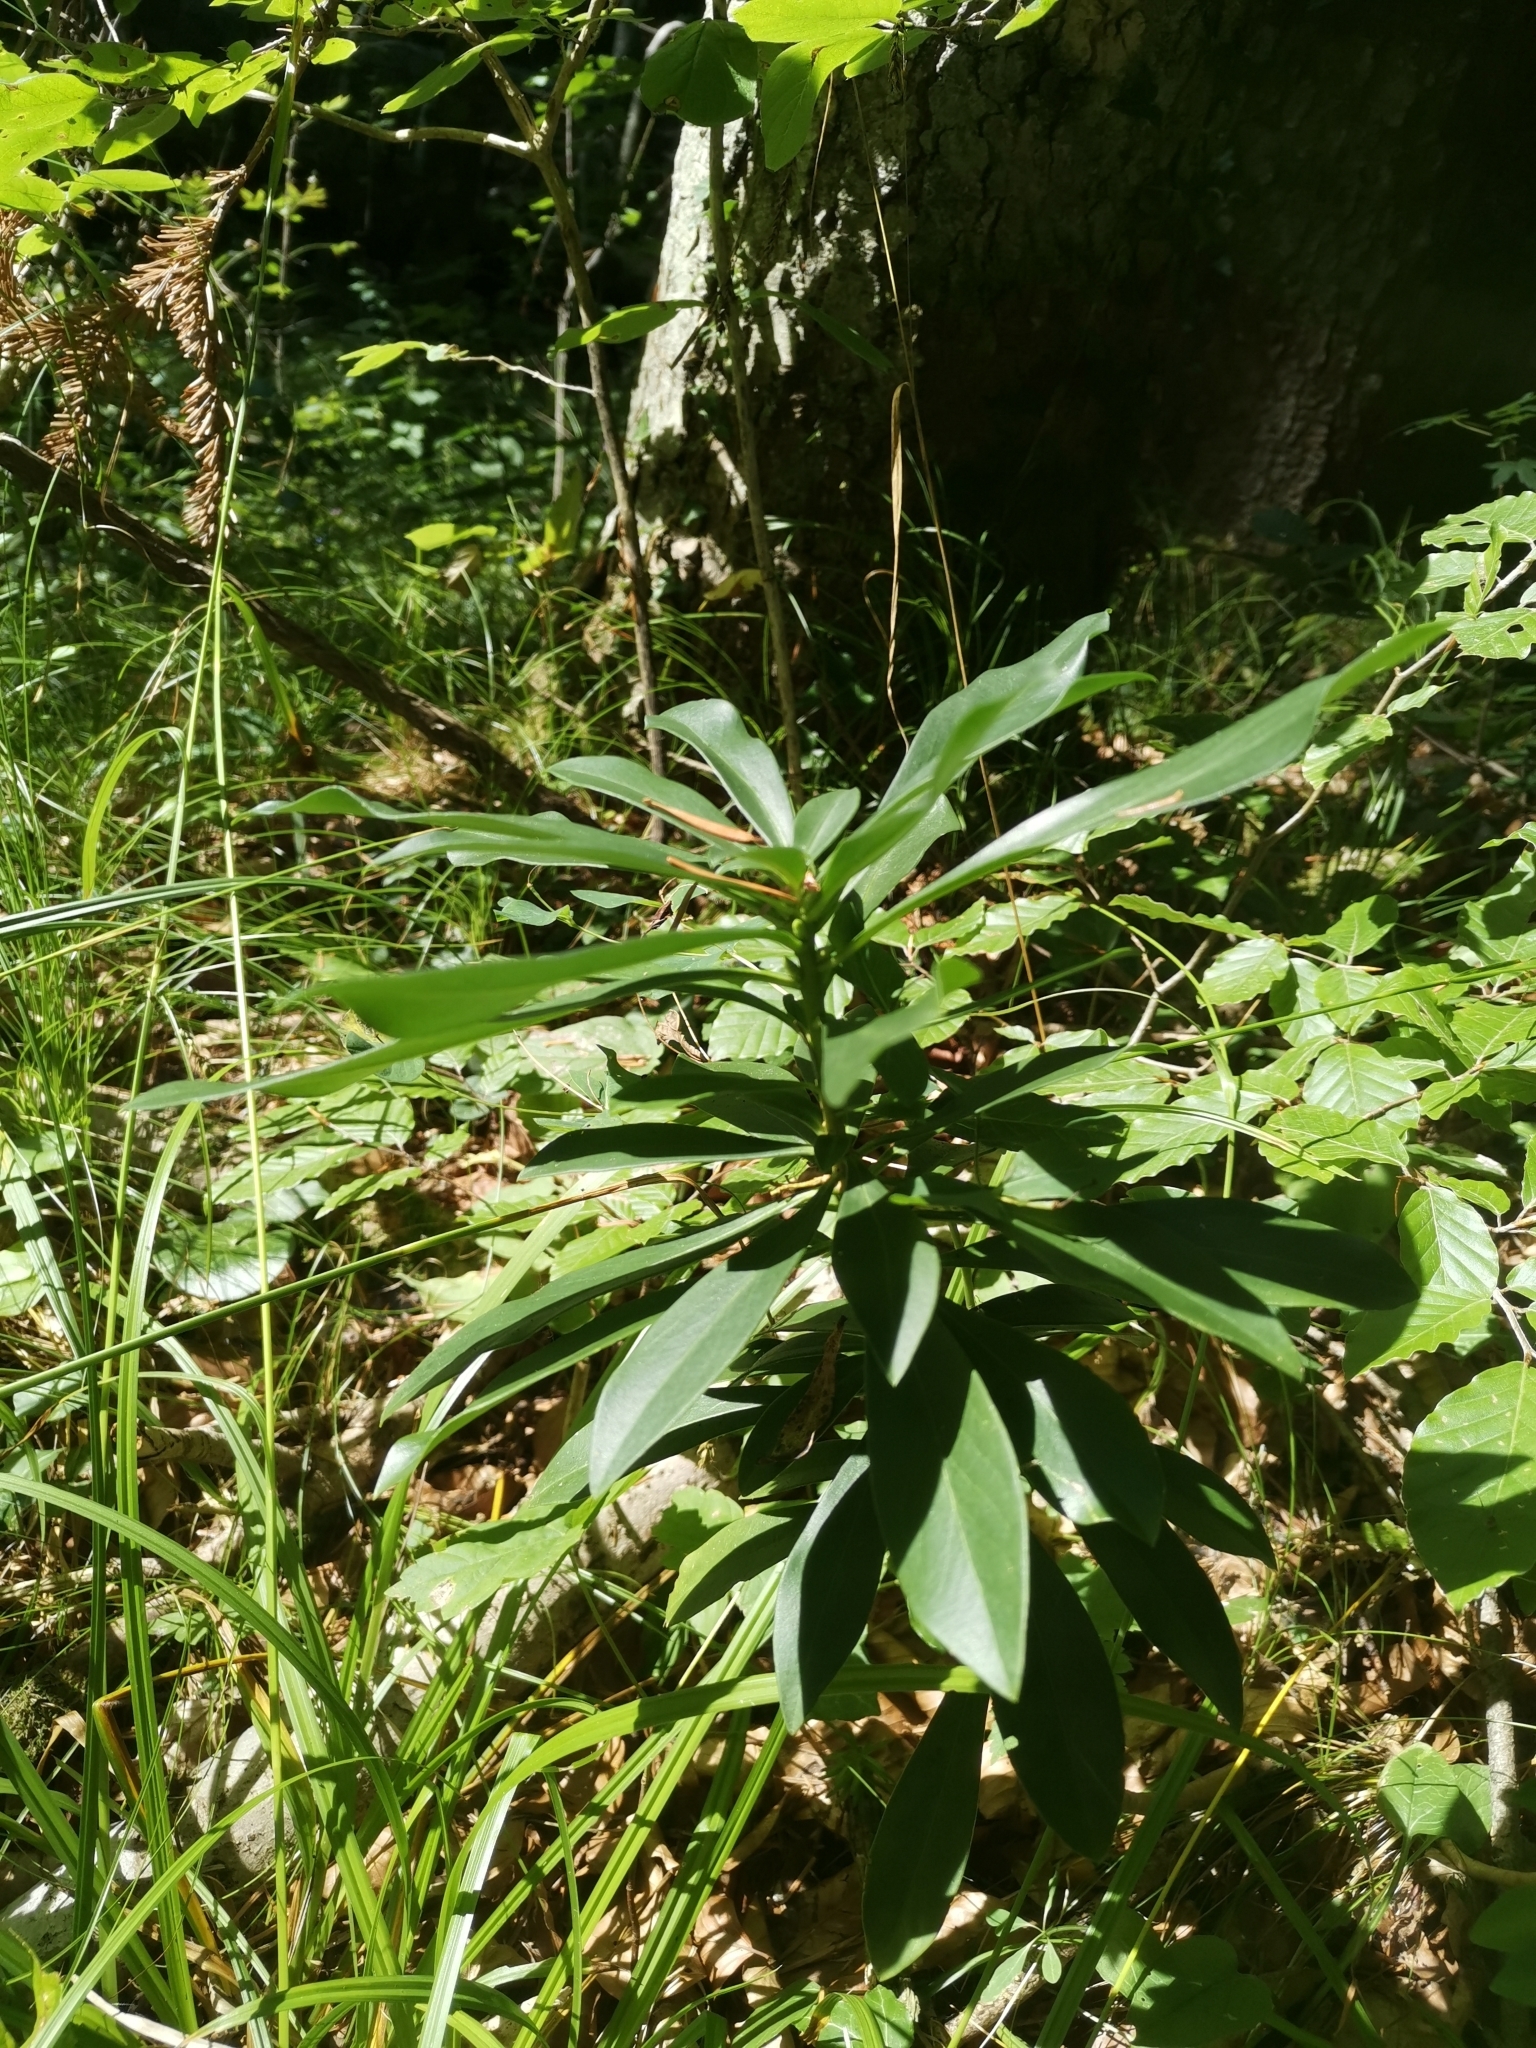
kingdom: Plantae
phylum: Tracheophyta
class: Magnoliopsida
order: Malvales
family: Thymelaeaceae
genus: Daphne
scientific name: Daphne laureola
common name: Spurge-laurel
